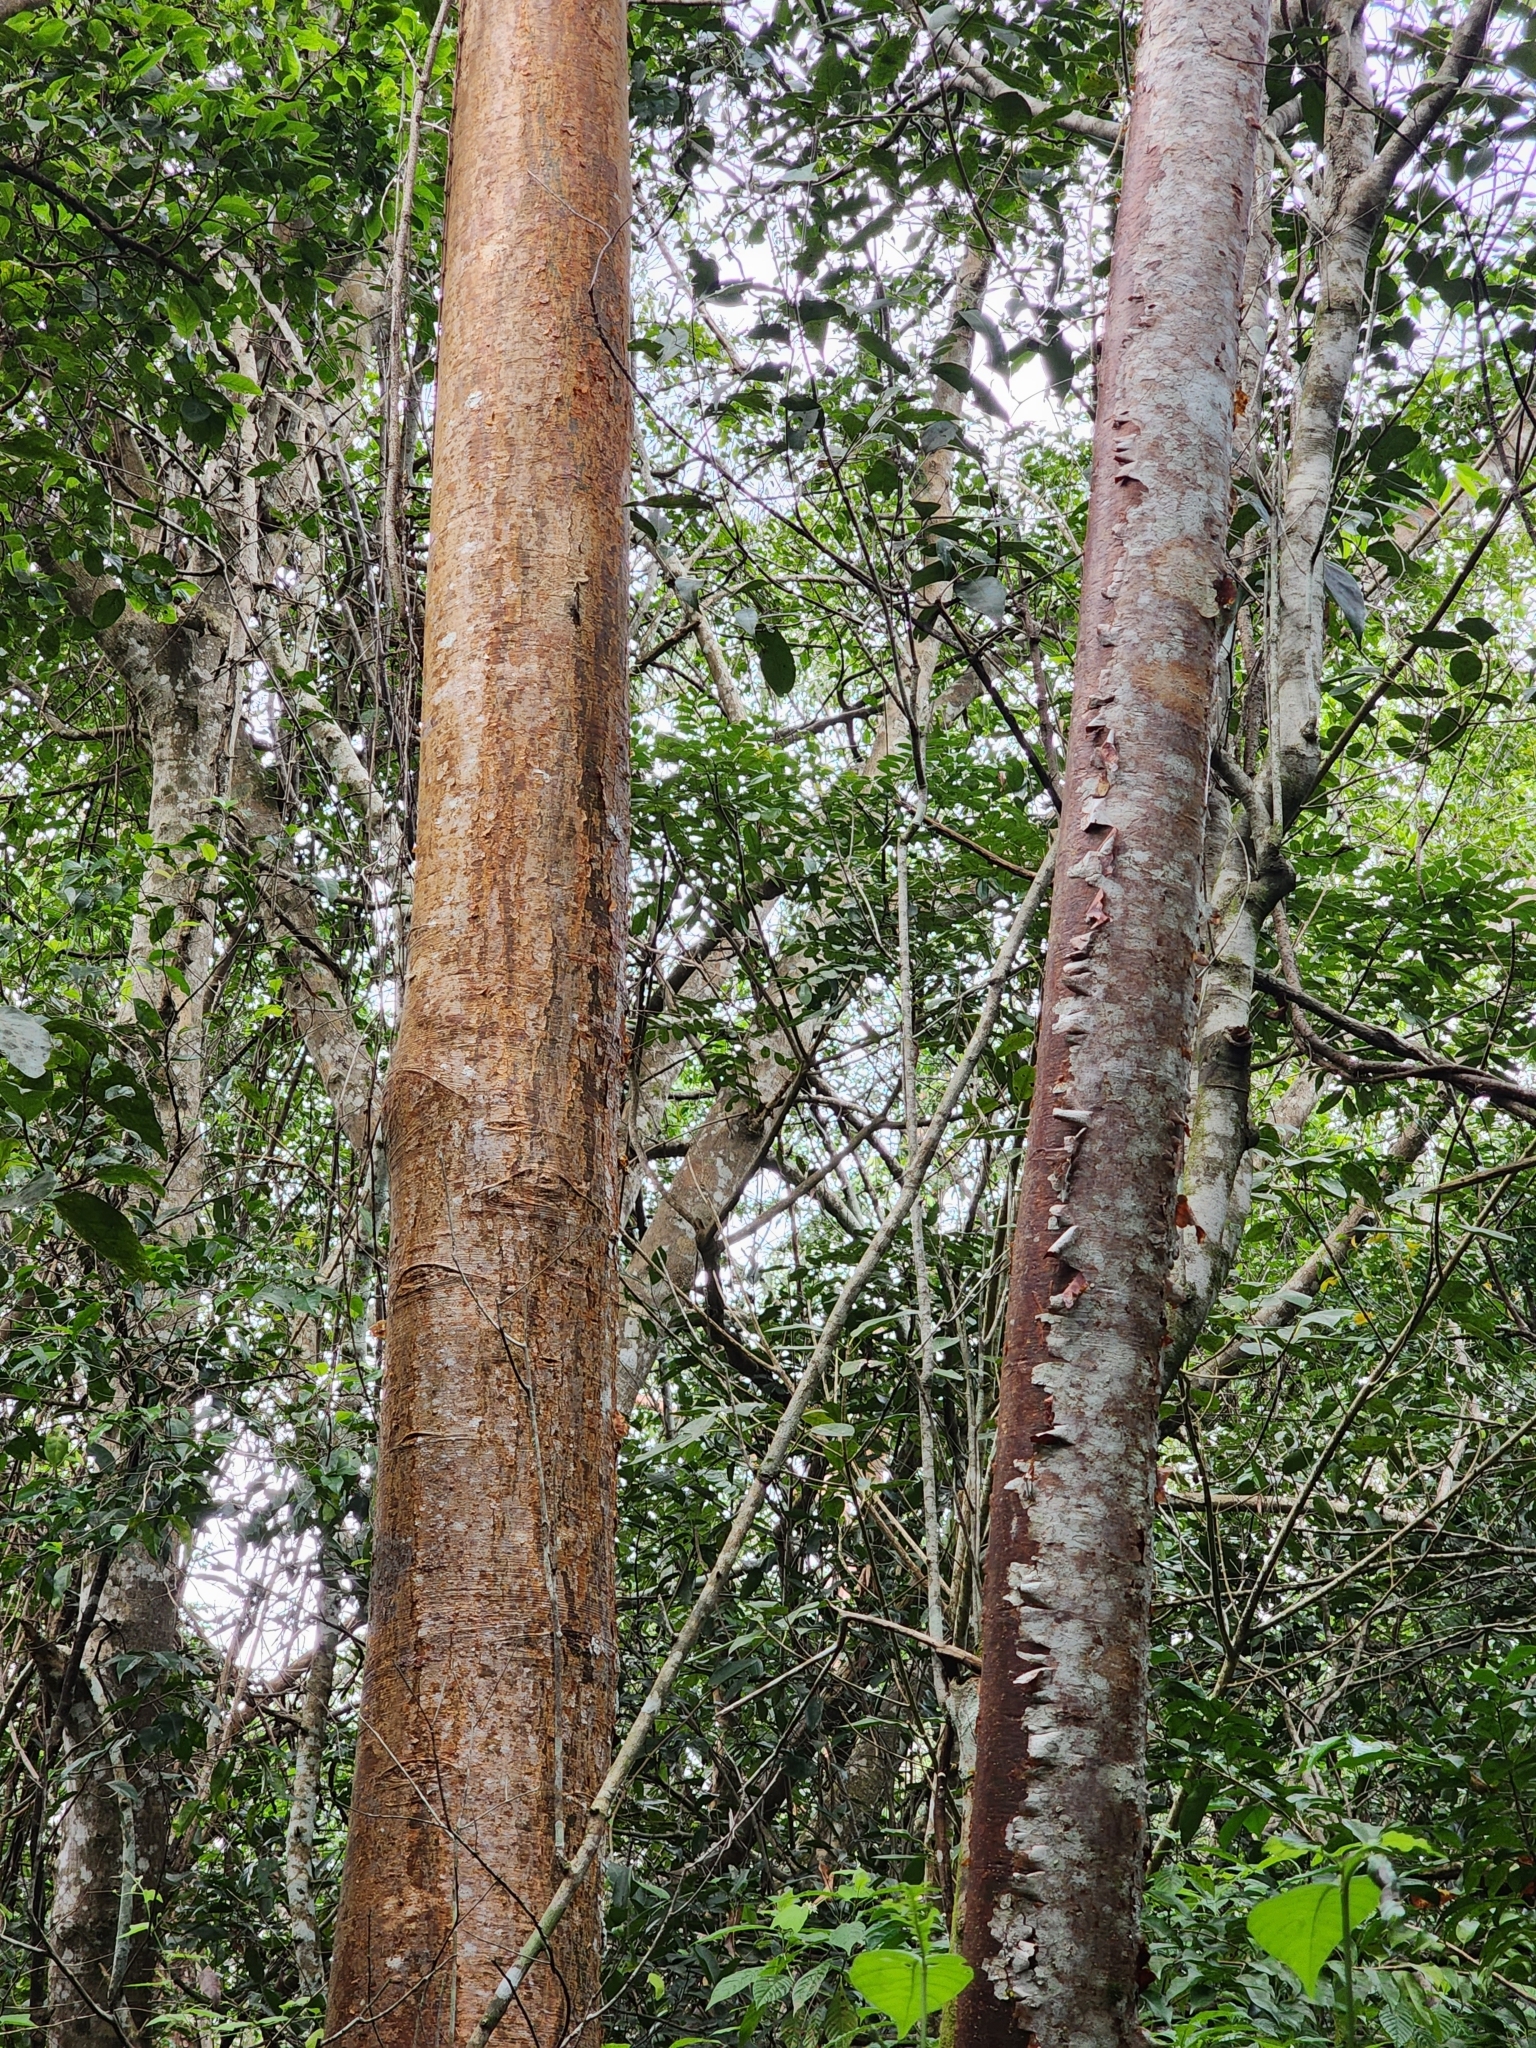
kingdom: Plantae
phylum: Tracheophyta
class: Magnoliopsida
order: Sapindales
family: Burseraceae
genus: Bursera
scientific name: Bursera simaruba
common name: Turpentine tree
